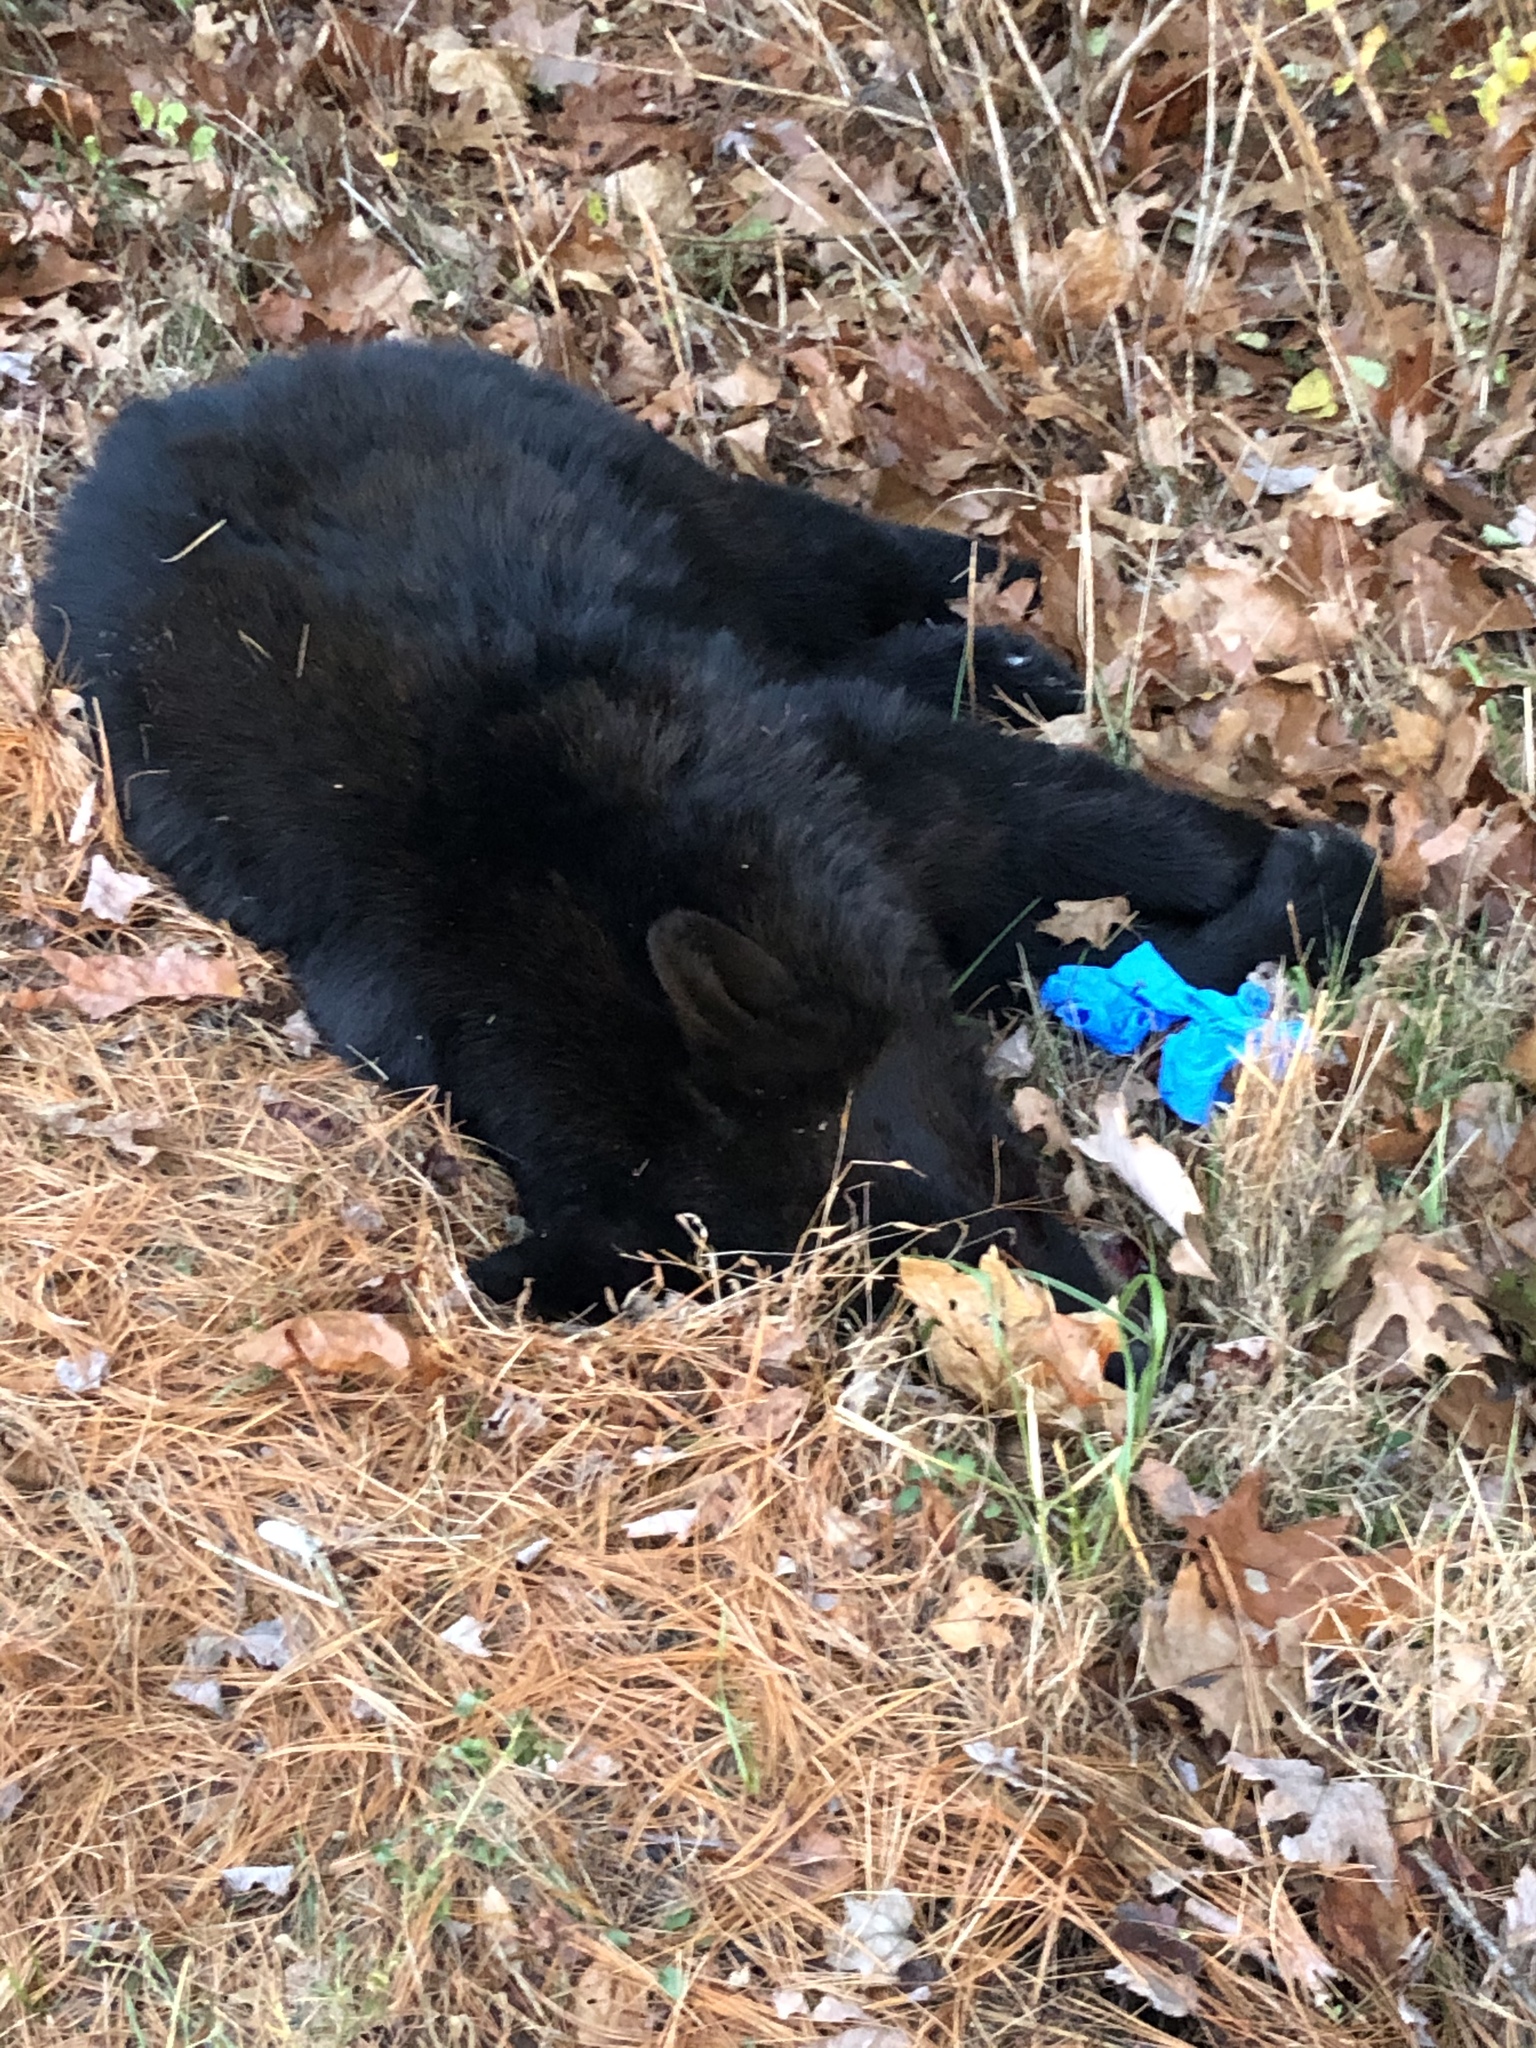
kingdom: Animalia
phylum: Chordata
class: Mammalia
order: Carnivora
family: Ursidae
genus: Ursus
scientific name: Ursus americanus
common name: American black bear
